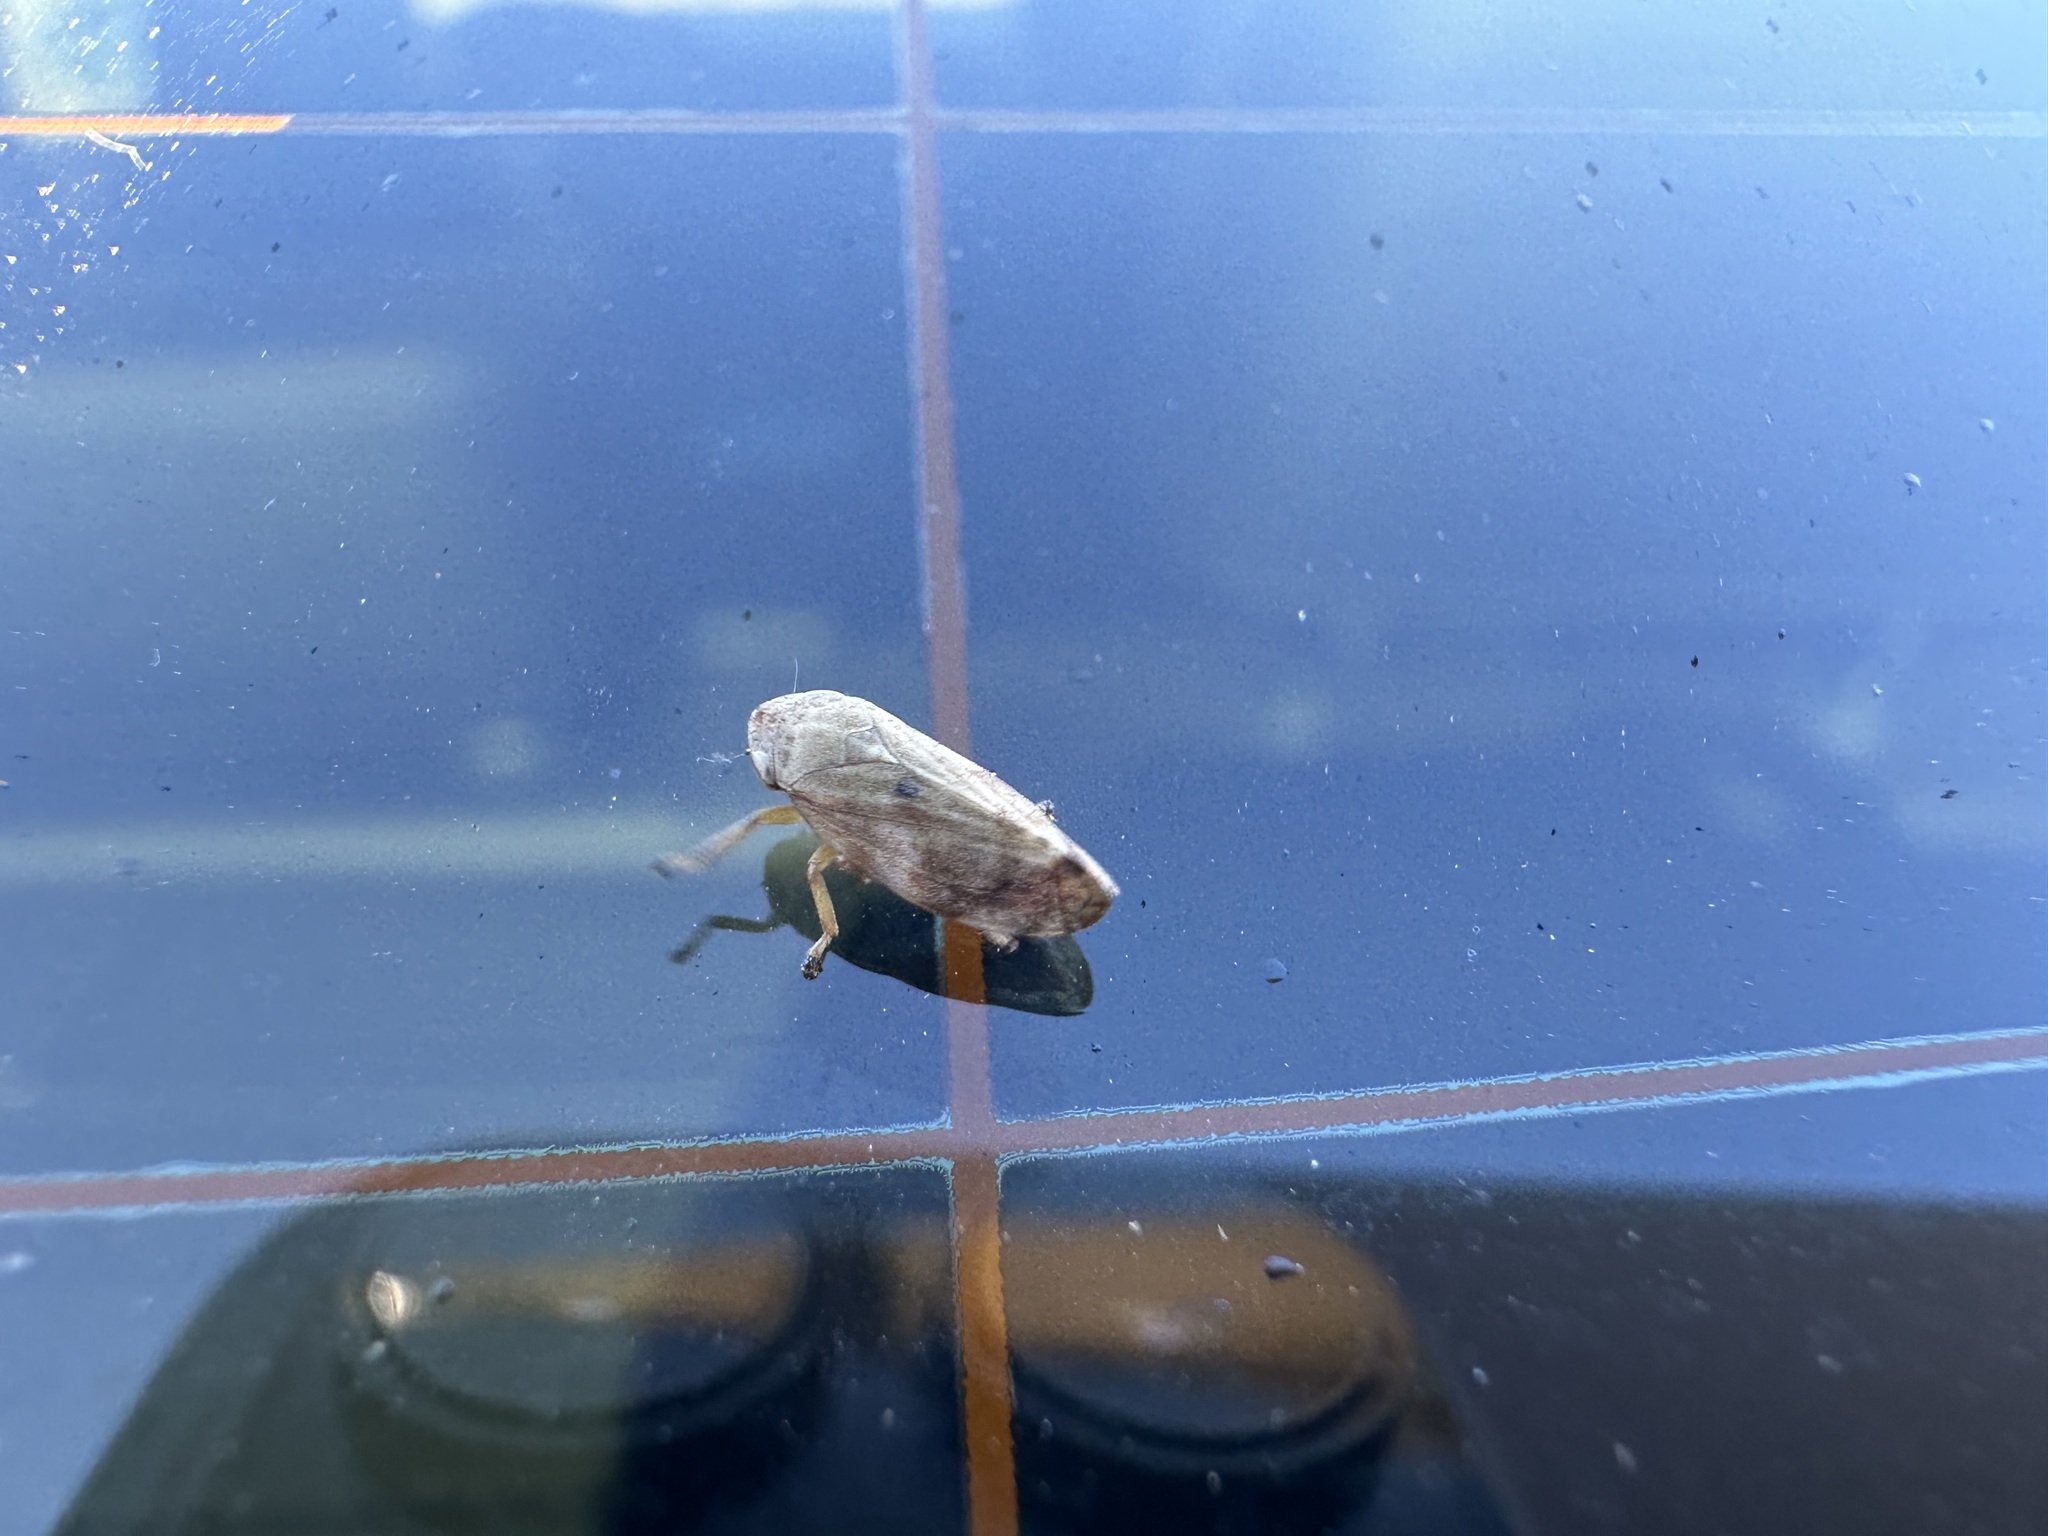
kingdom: Animalia
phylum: Arthropoda
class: Insecta
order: Hemiptera
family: Aphrophoridae
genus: Philaenus
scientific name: Philaenus spumarius
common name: Meadow spittlebug
